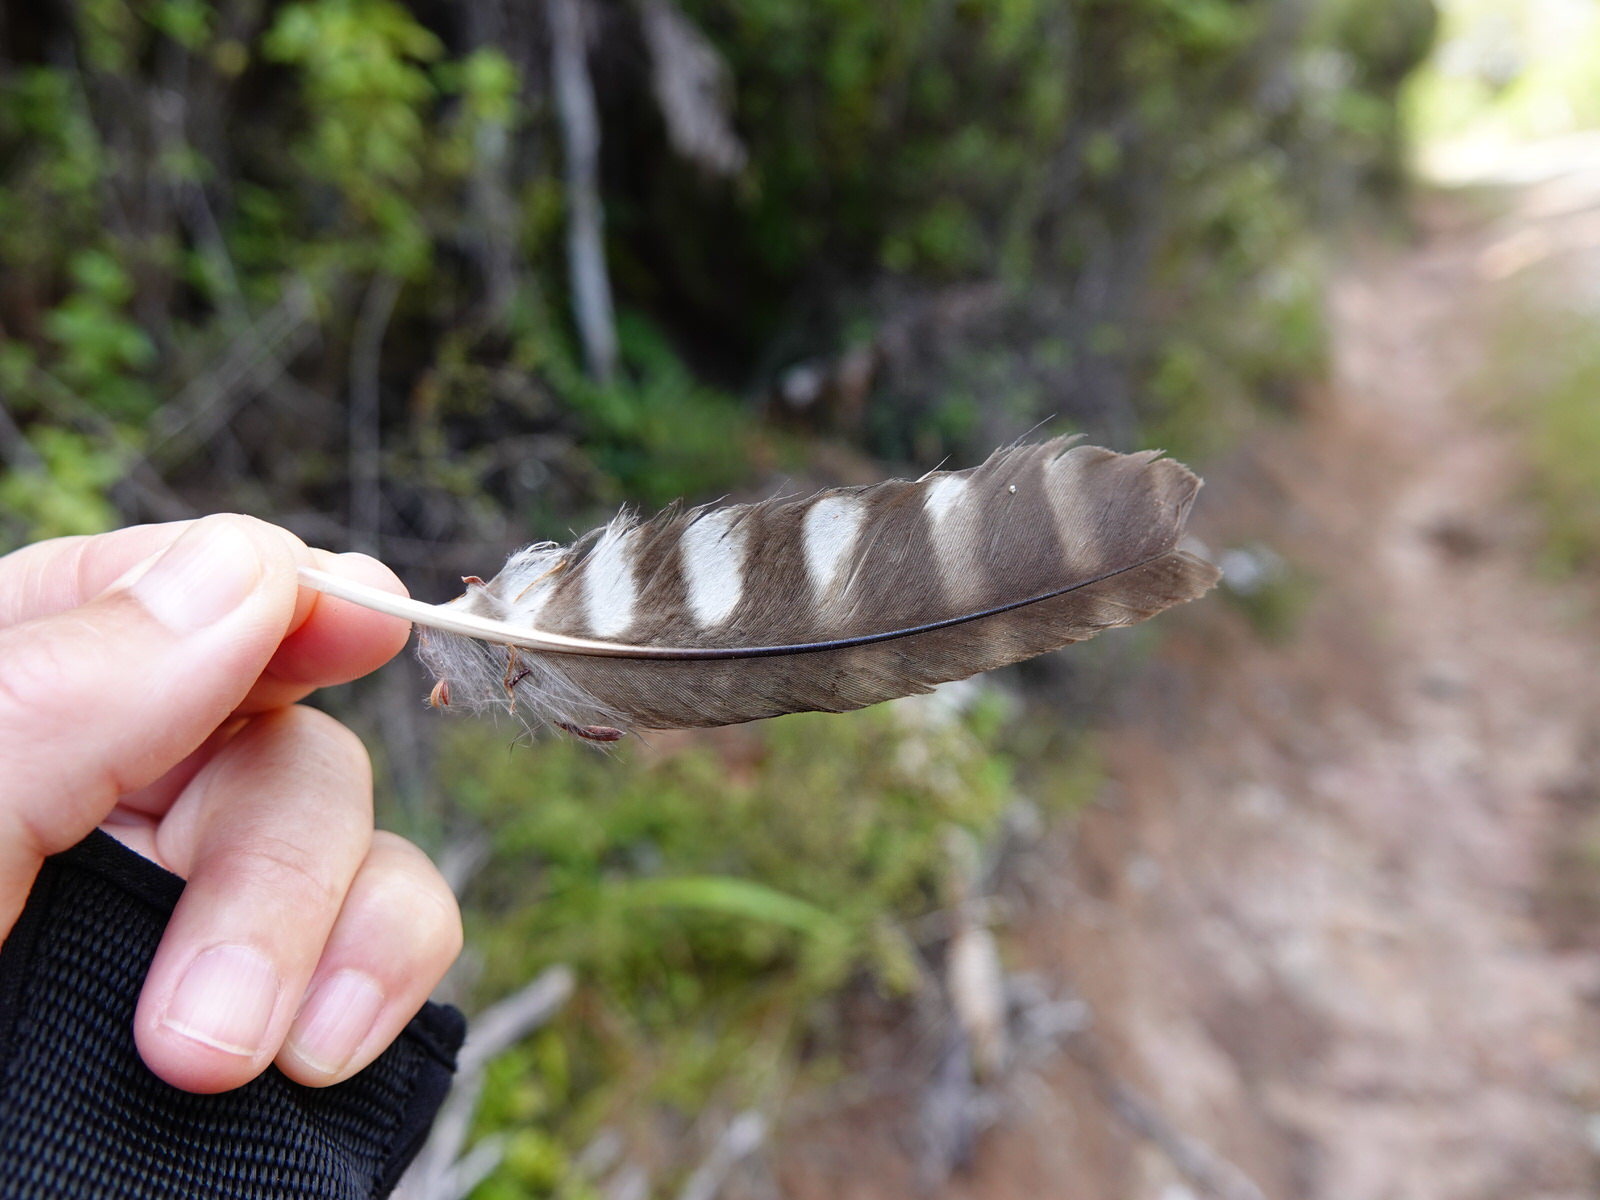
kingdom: Animalia
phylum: Chordata
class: Aves
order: Strigiformes
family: Strigidae
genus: Ninox
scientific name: Ninox novaeseelandiae
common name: Morepork
